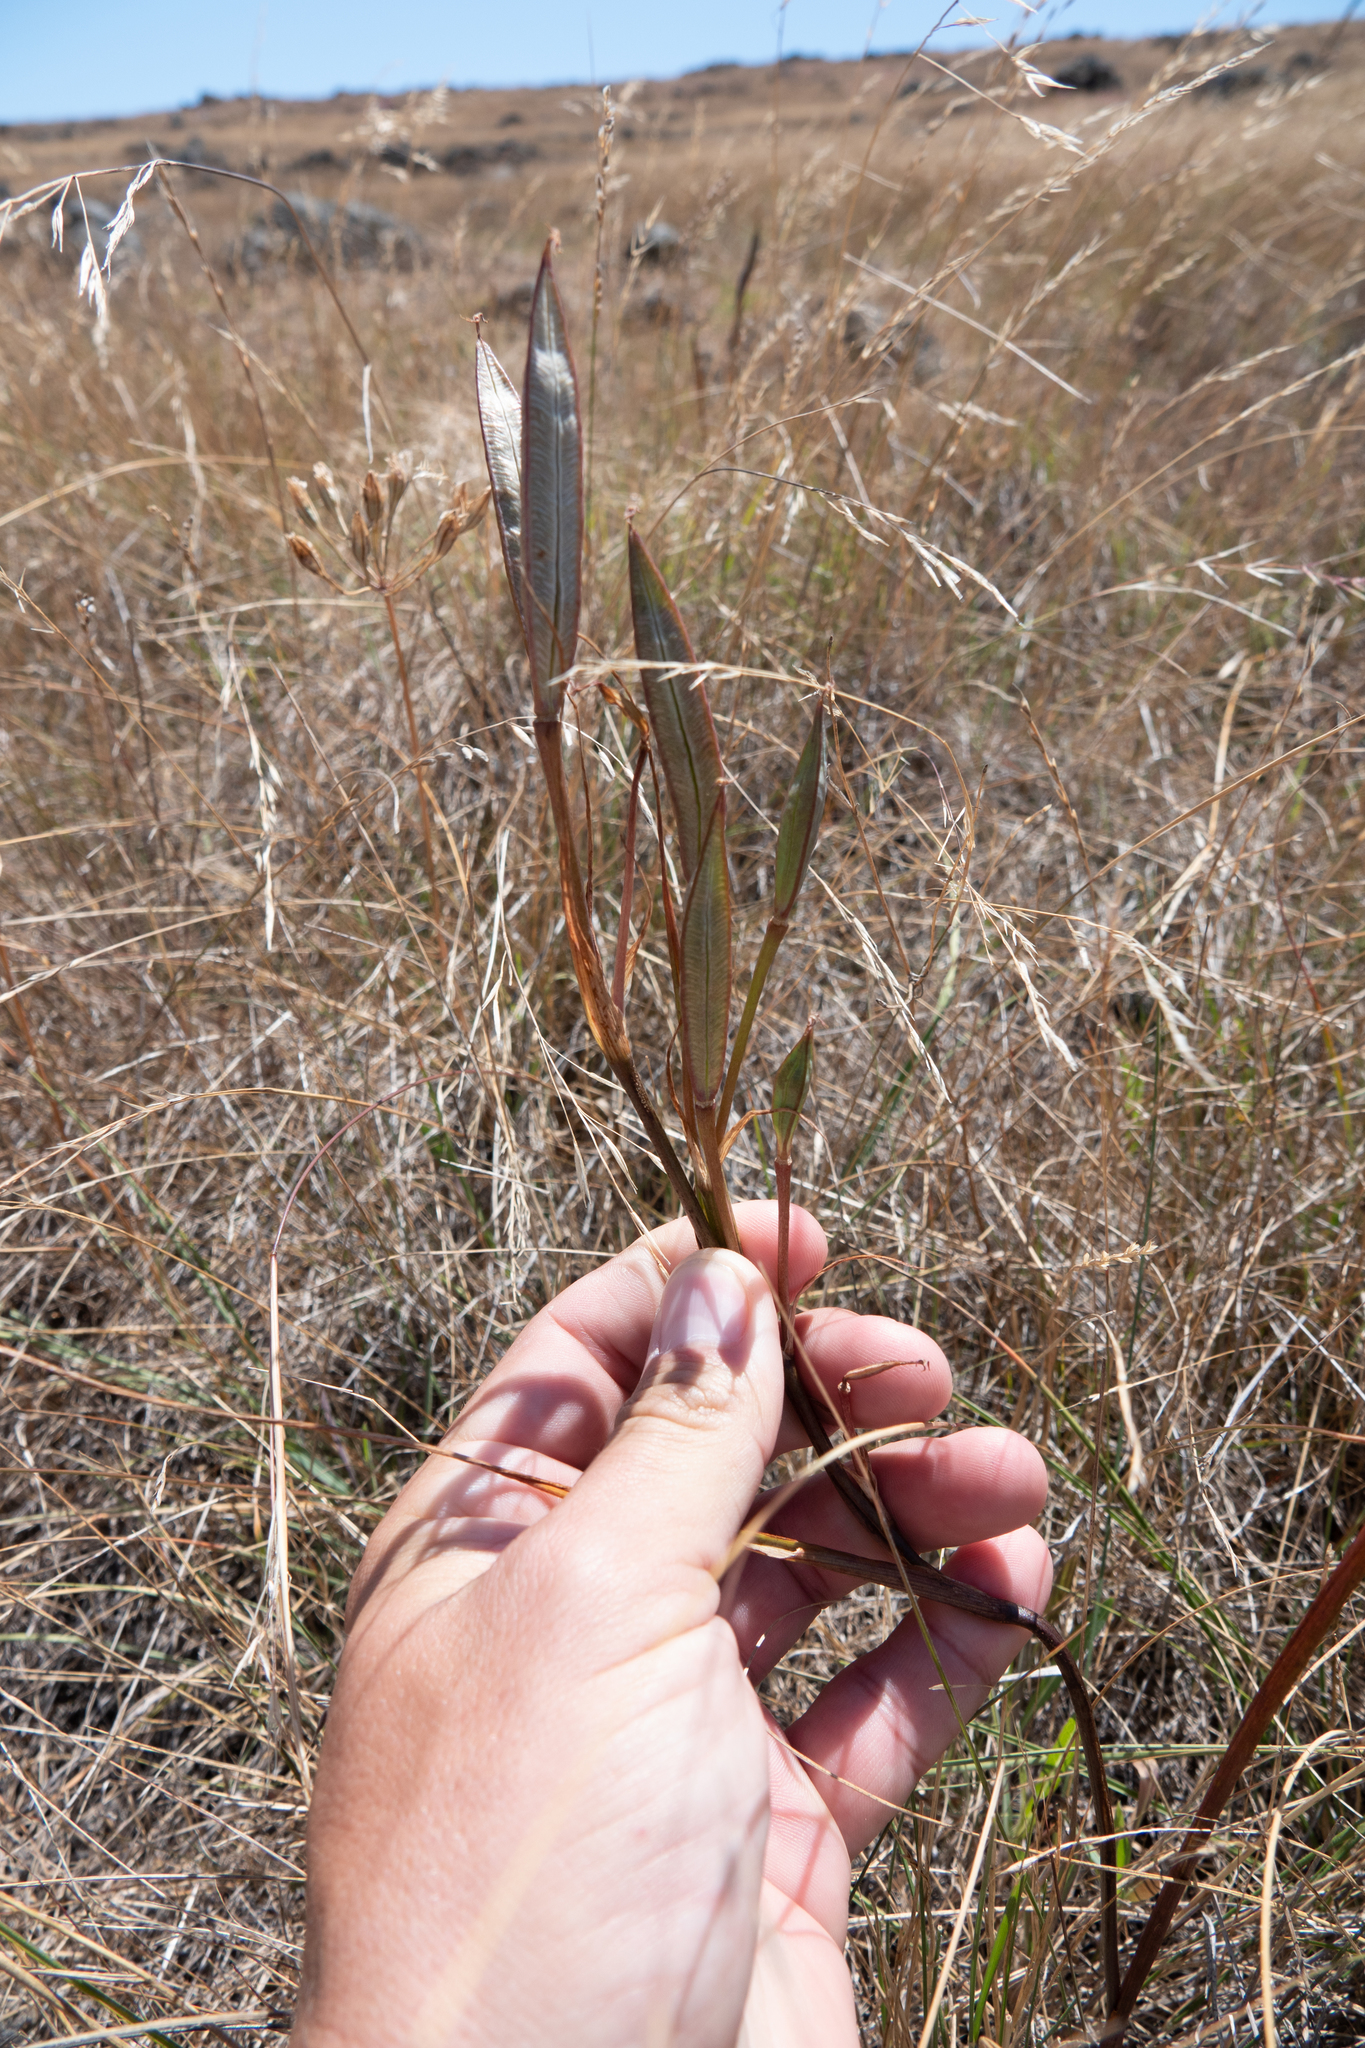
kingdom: Plantae
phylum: Tracheophyta
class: Liliopsida
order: Liliales
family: Liliaceae
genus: Calochortus
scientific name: Calochortus tiburonensis
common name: Tiburon mariposa-lily
